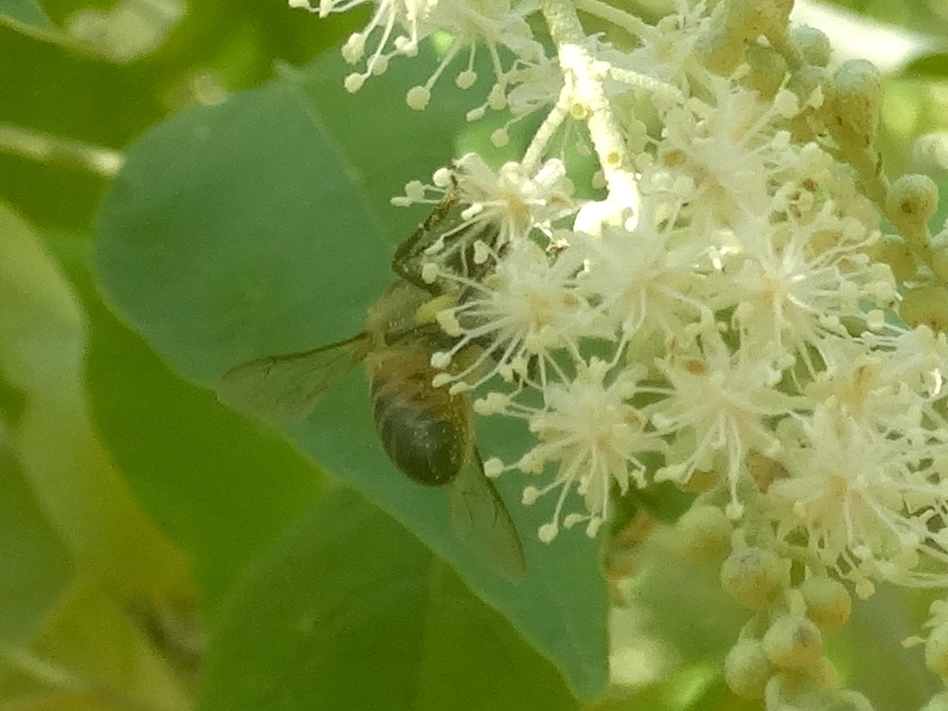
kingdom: Animalia
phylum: Arthropoda
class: Insecta
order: Hymenoptera
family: Apidae
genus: Apis
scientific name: Apis mellifera
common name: Honey bee
